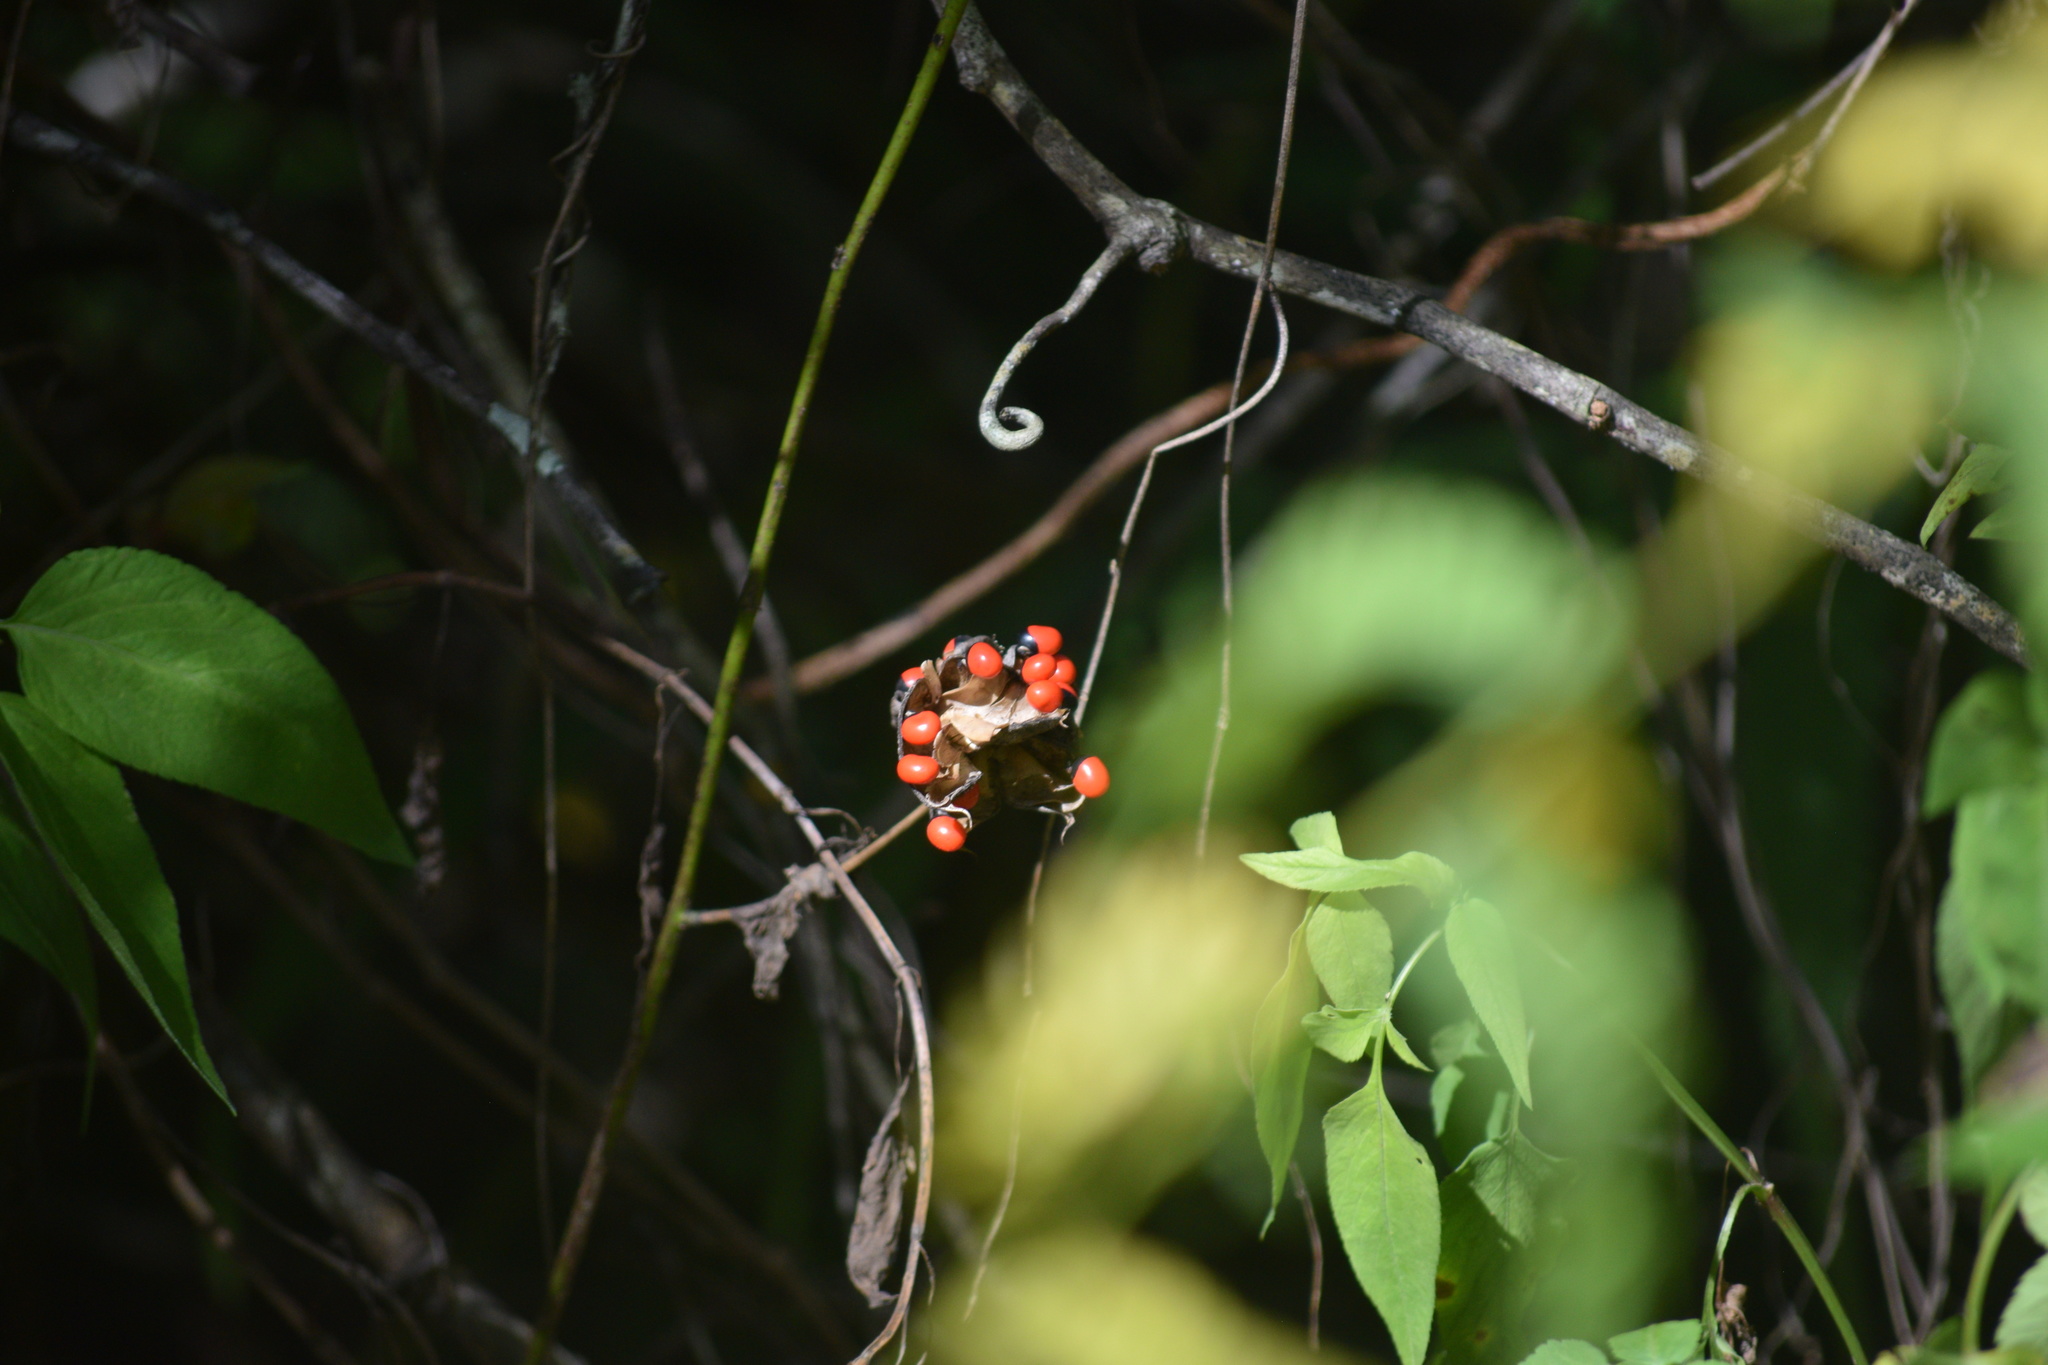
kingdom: Plantae
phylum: Tracheophyta
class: Magnoliopsida
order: Fabales
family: Fabaceae
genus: Abrus
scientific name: Abrus precatorius
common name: Rosarypea
